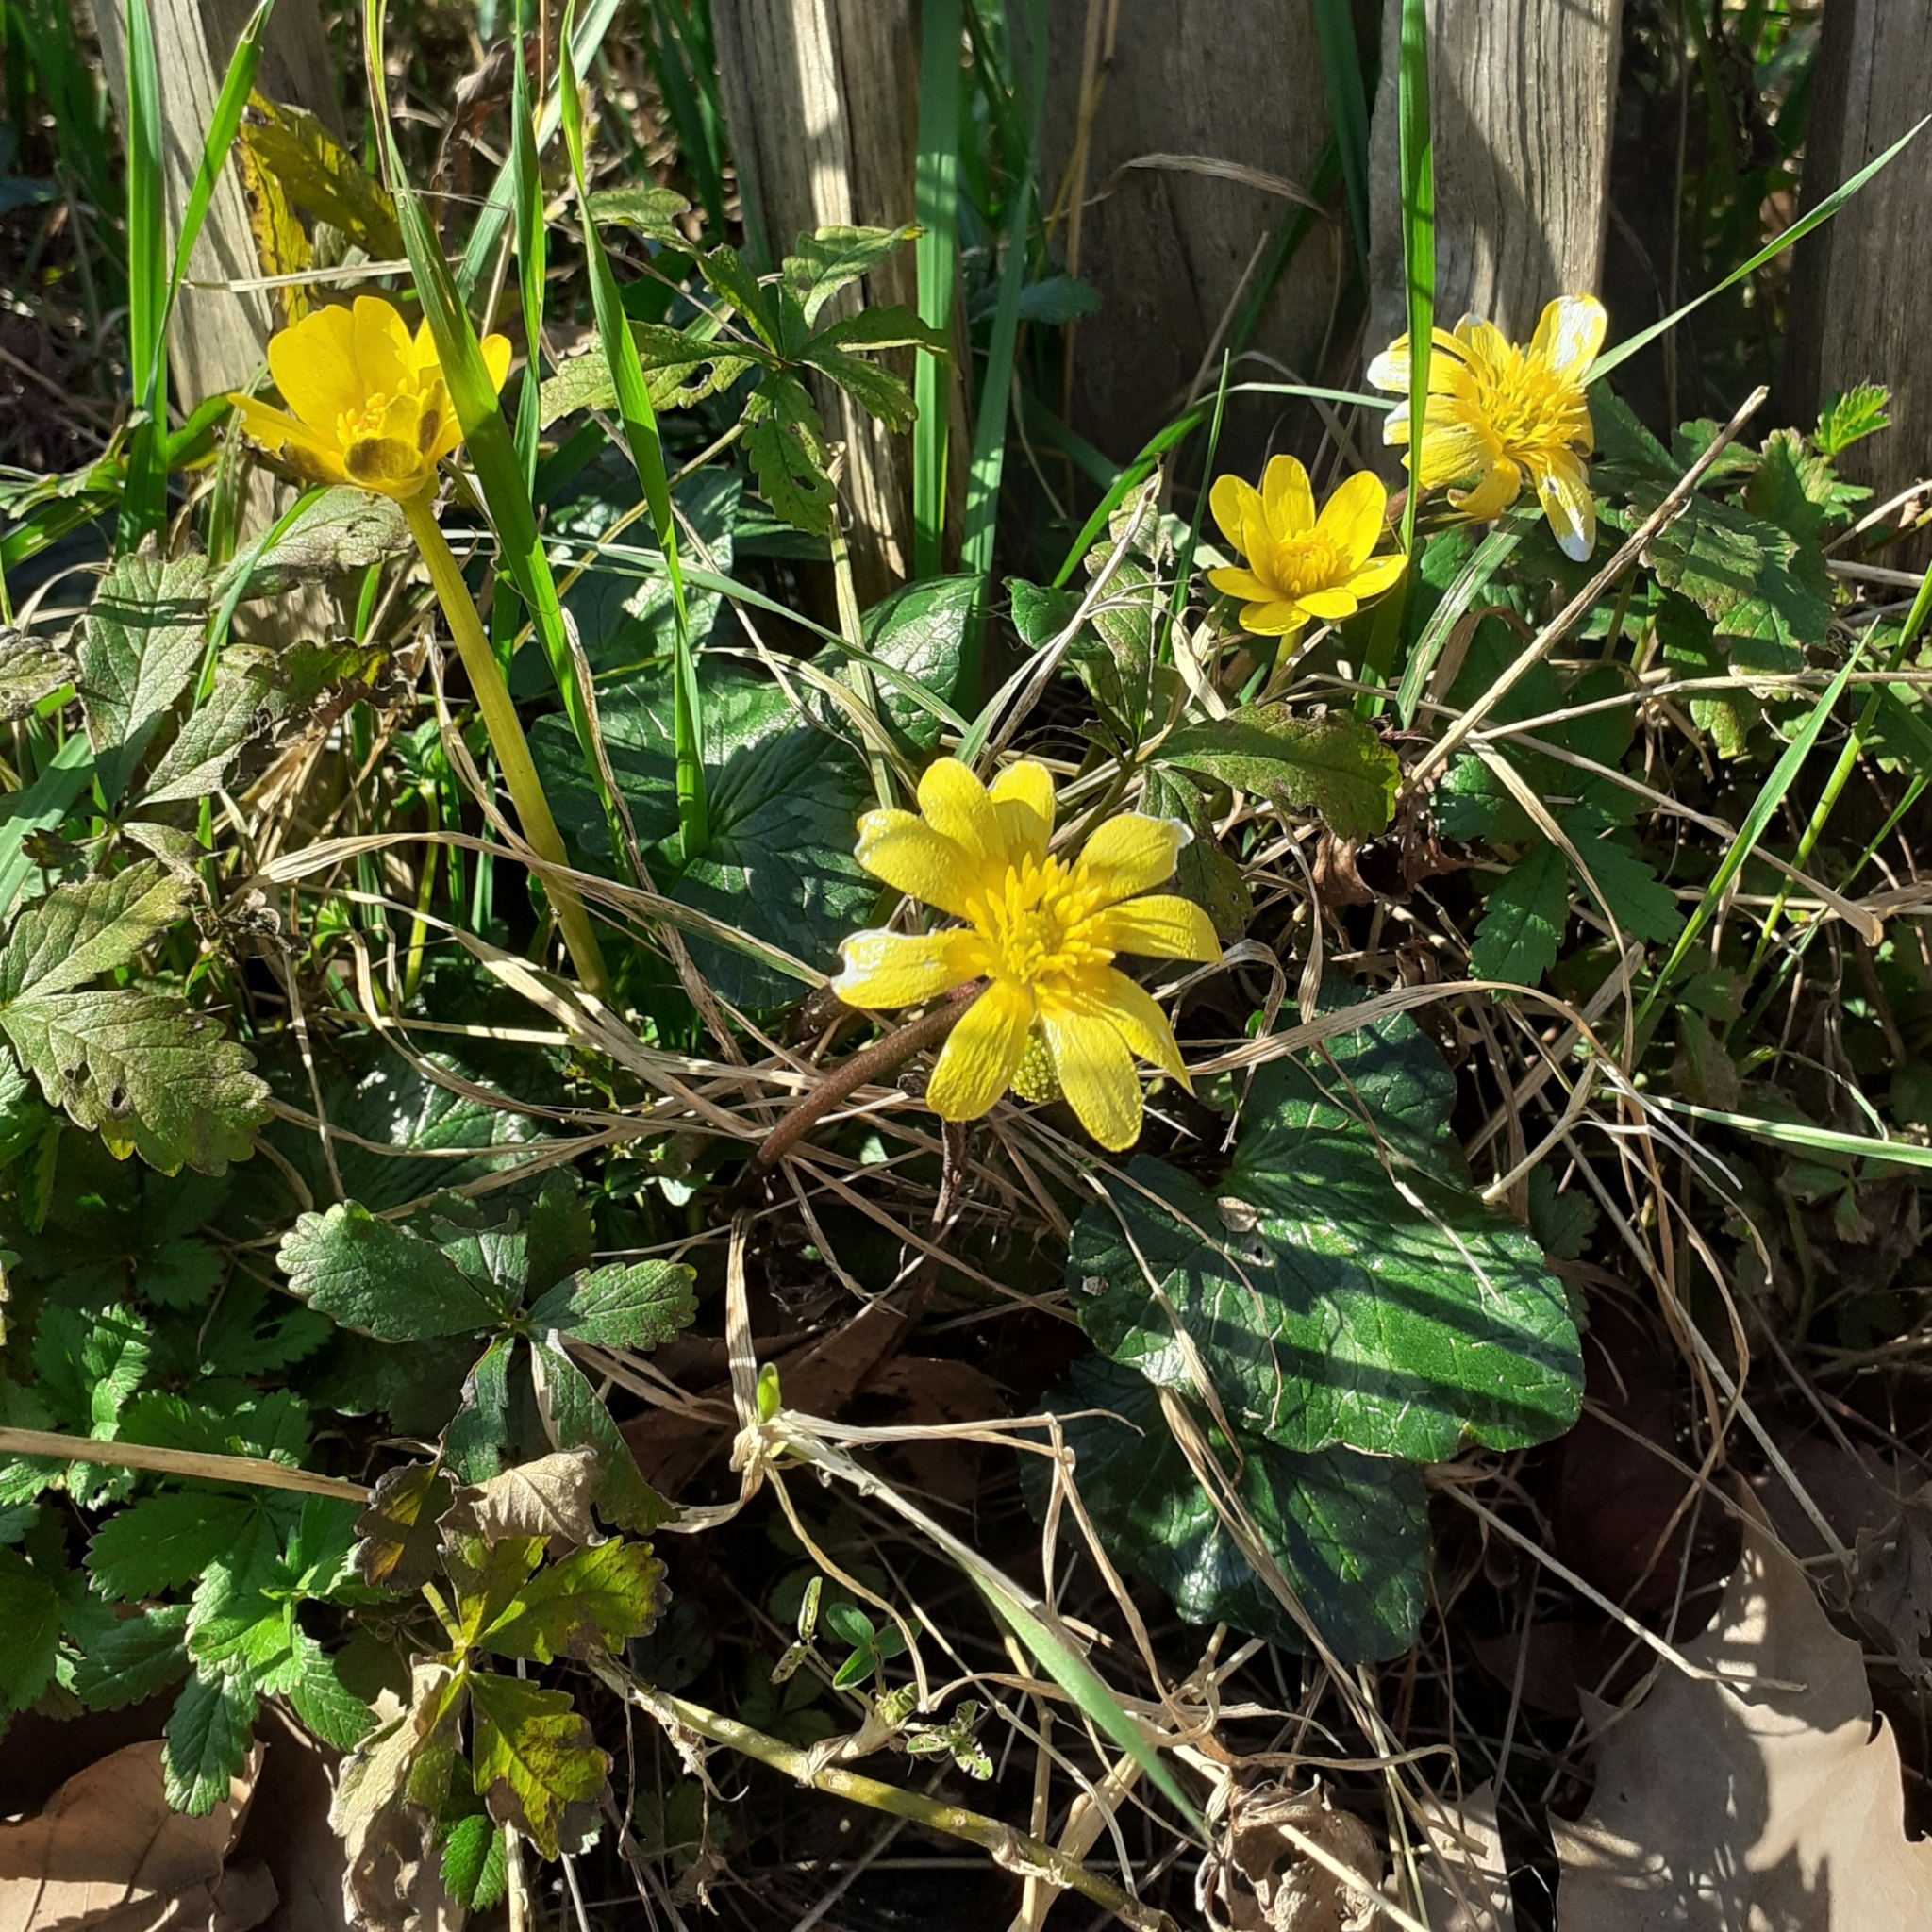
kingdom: Plantae
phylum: Tracheophyta
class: Magnoliopsida
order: Ranunculales
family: Ranunculaceae
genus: Ficaria
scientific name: Ficaria verna
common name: Lesser celandine
